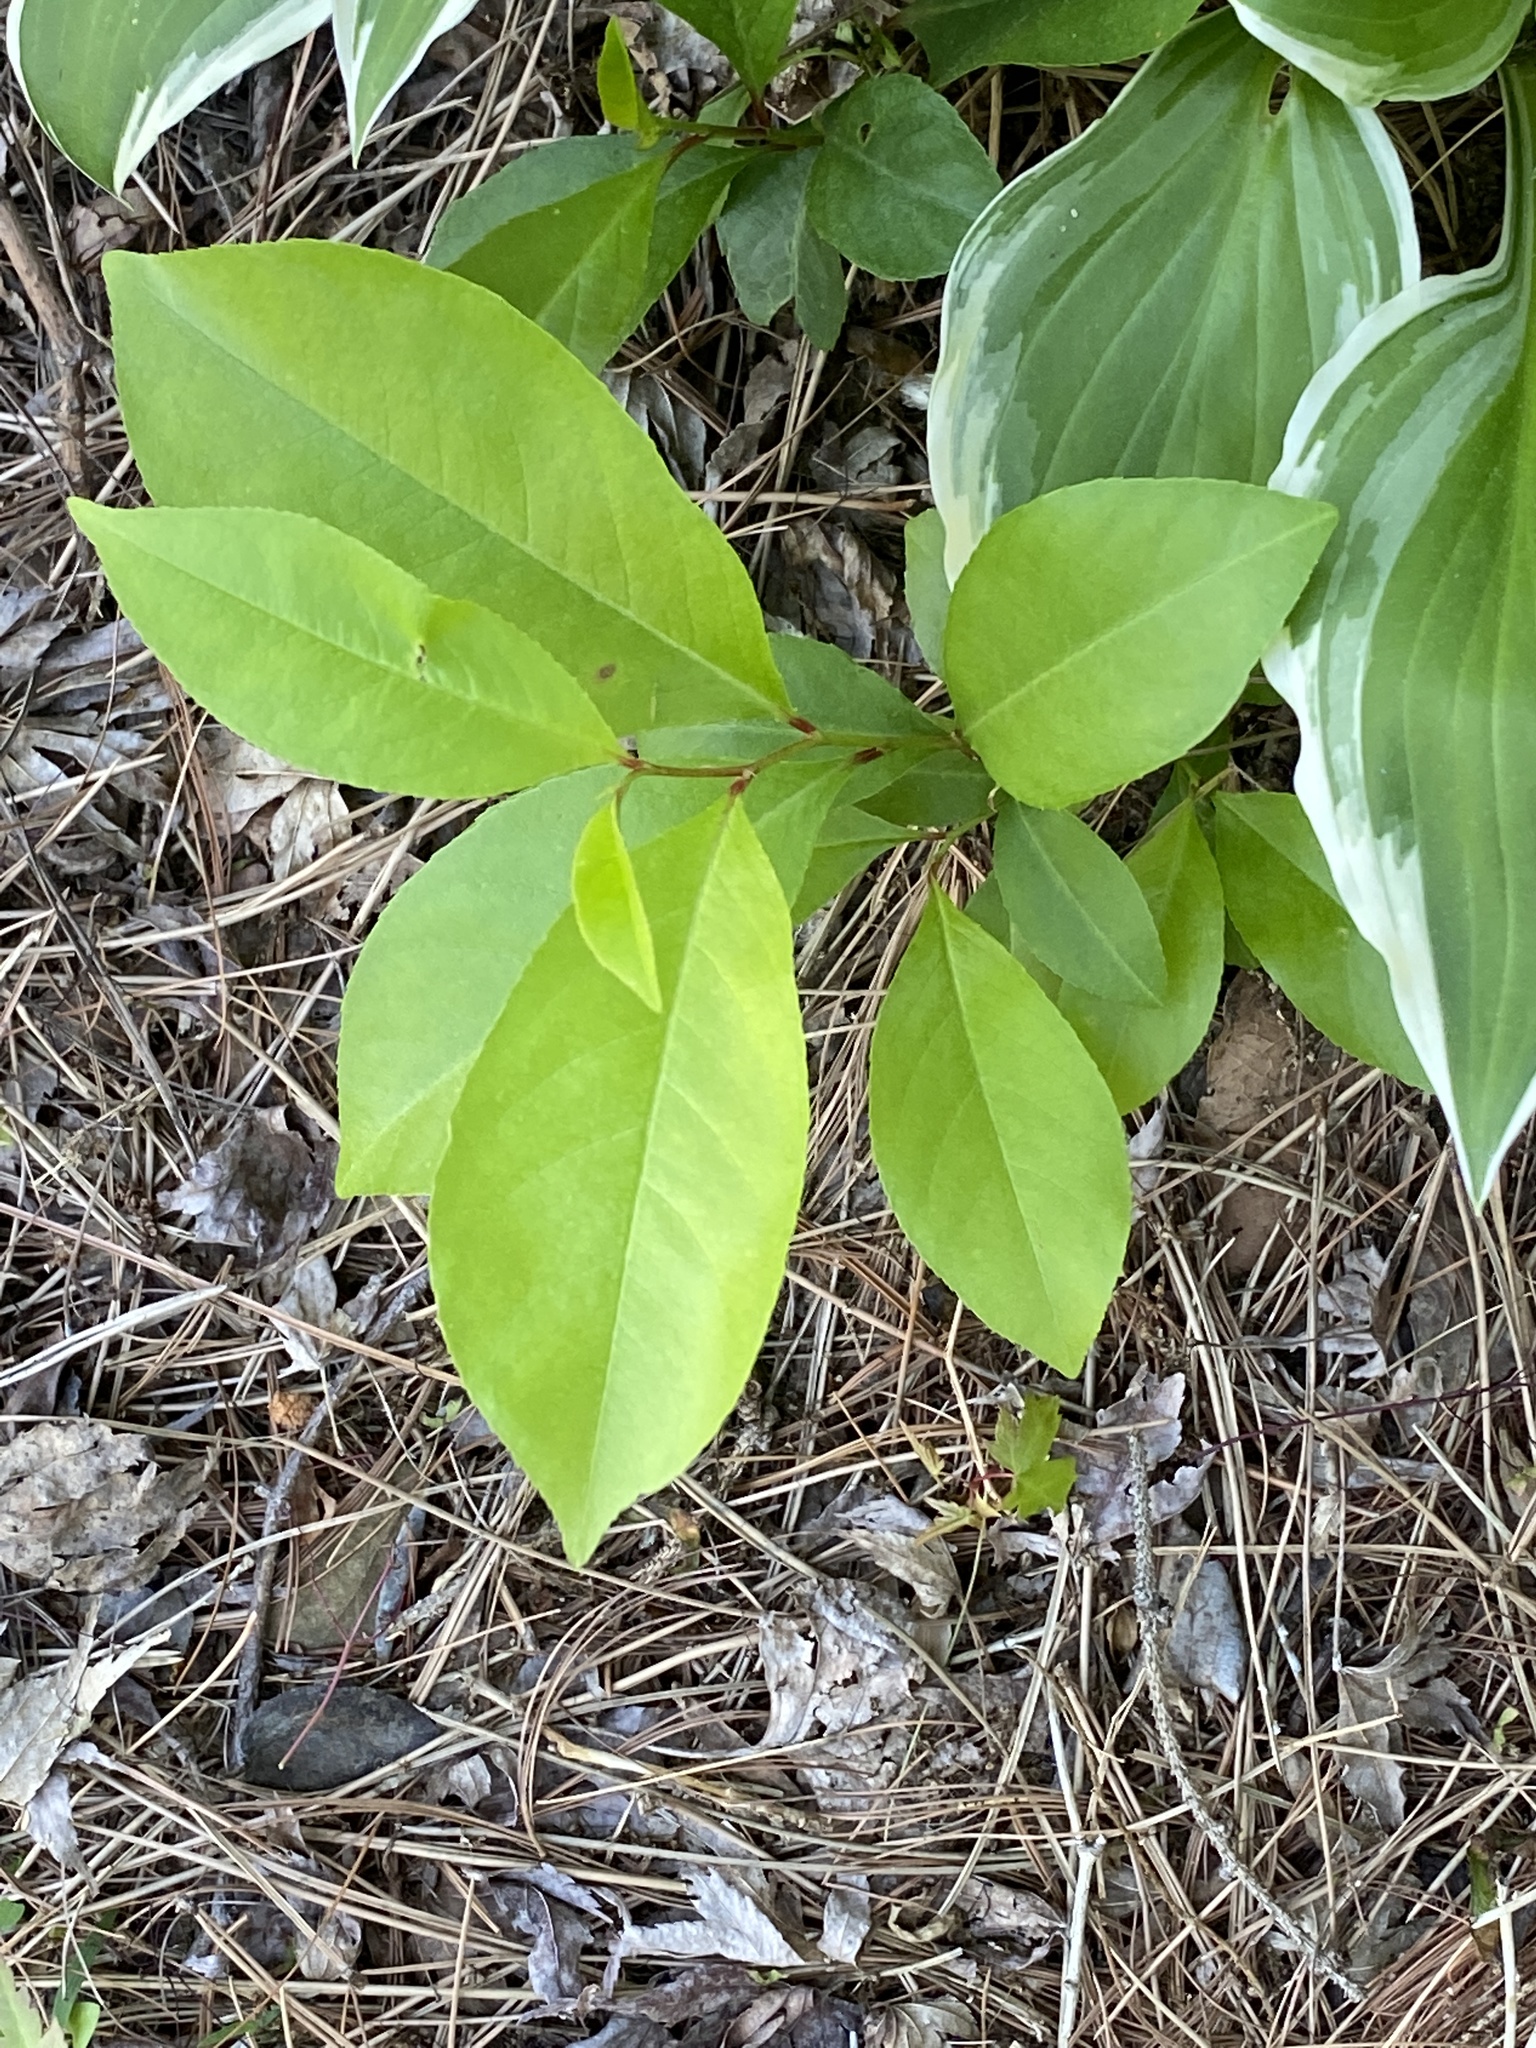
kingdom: Plantae
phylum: Tracheophyta
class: Magnoliopsida
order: Rosales
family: Rosaceae
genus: Prunus
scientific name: Prunus serotina
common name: Black cherry
